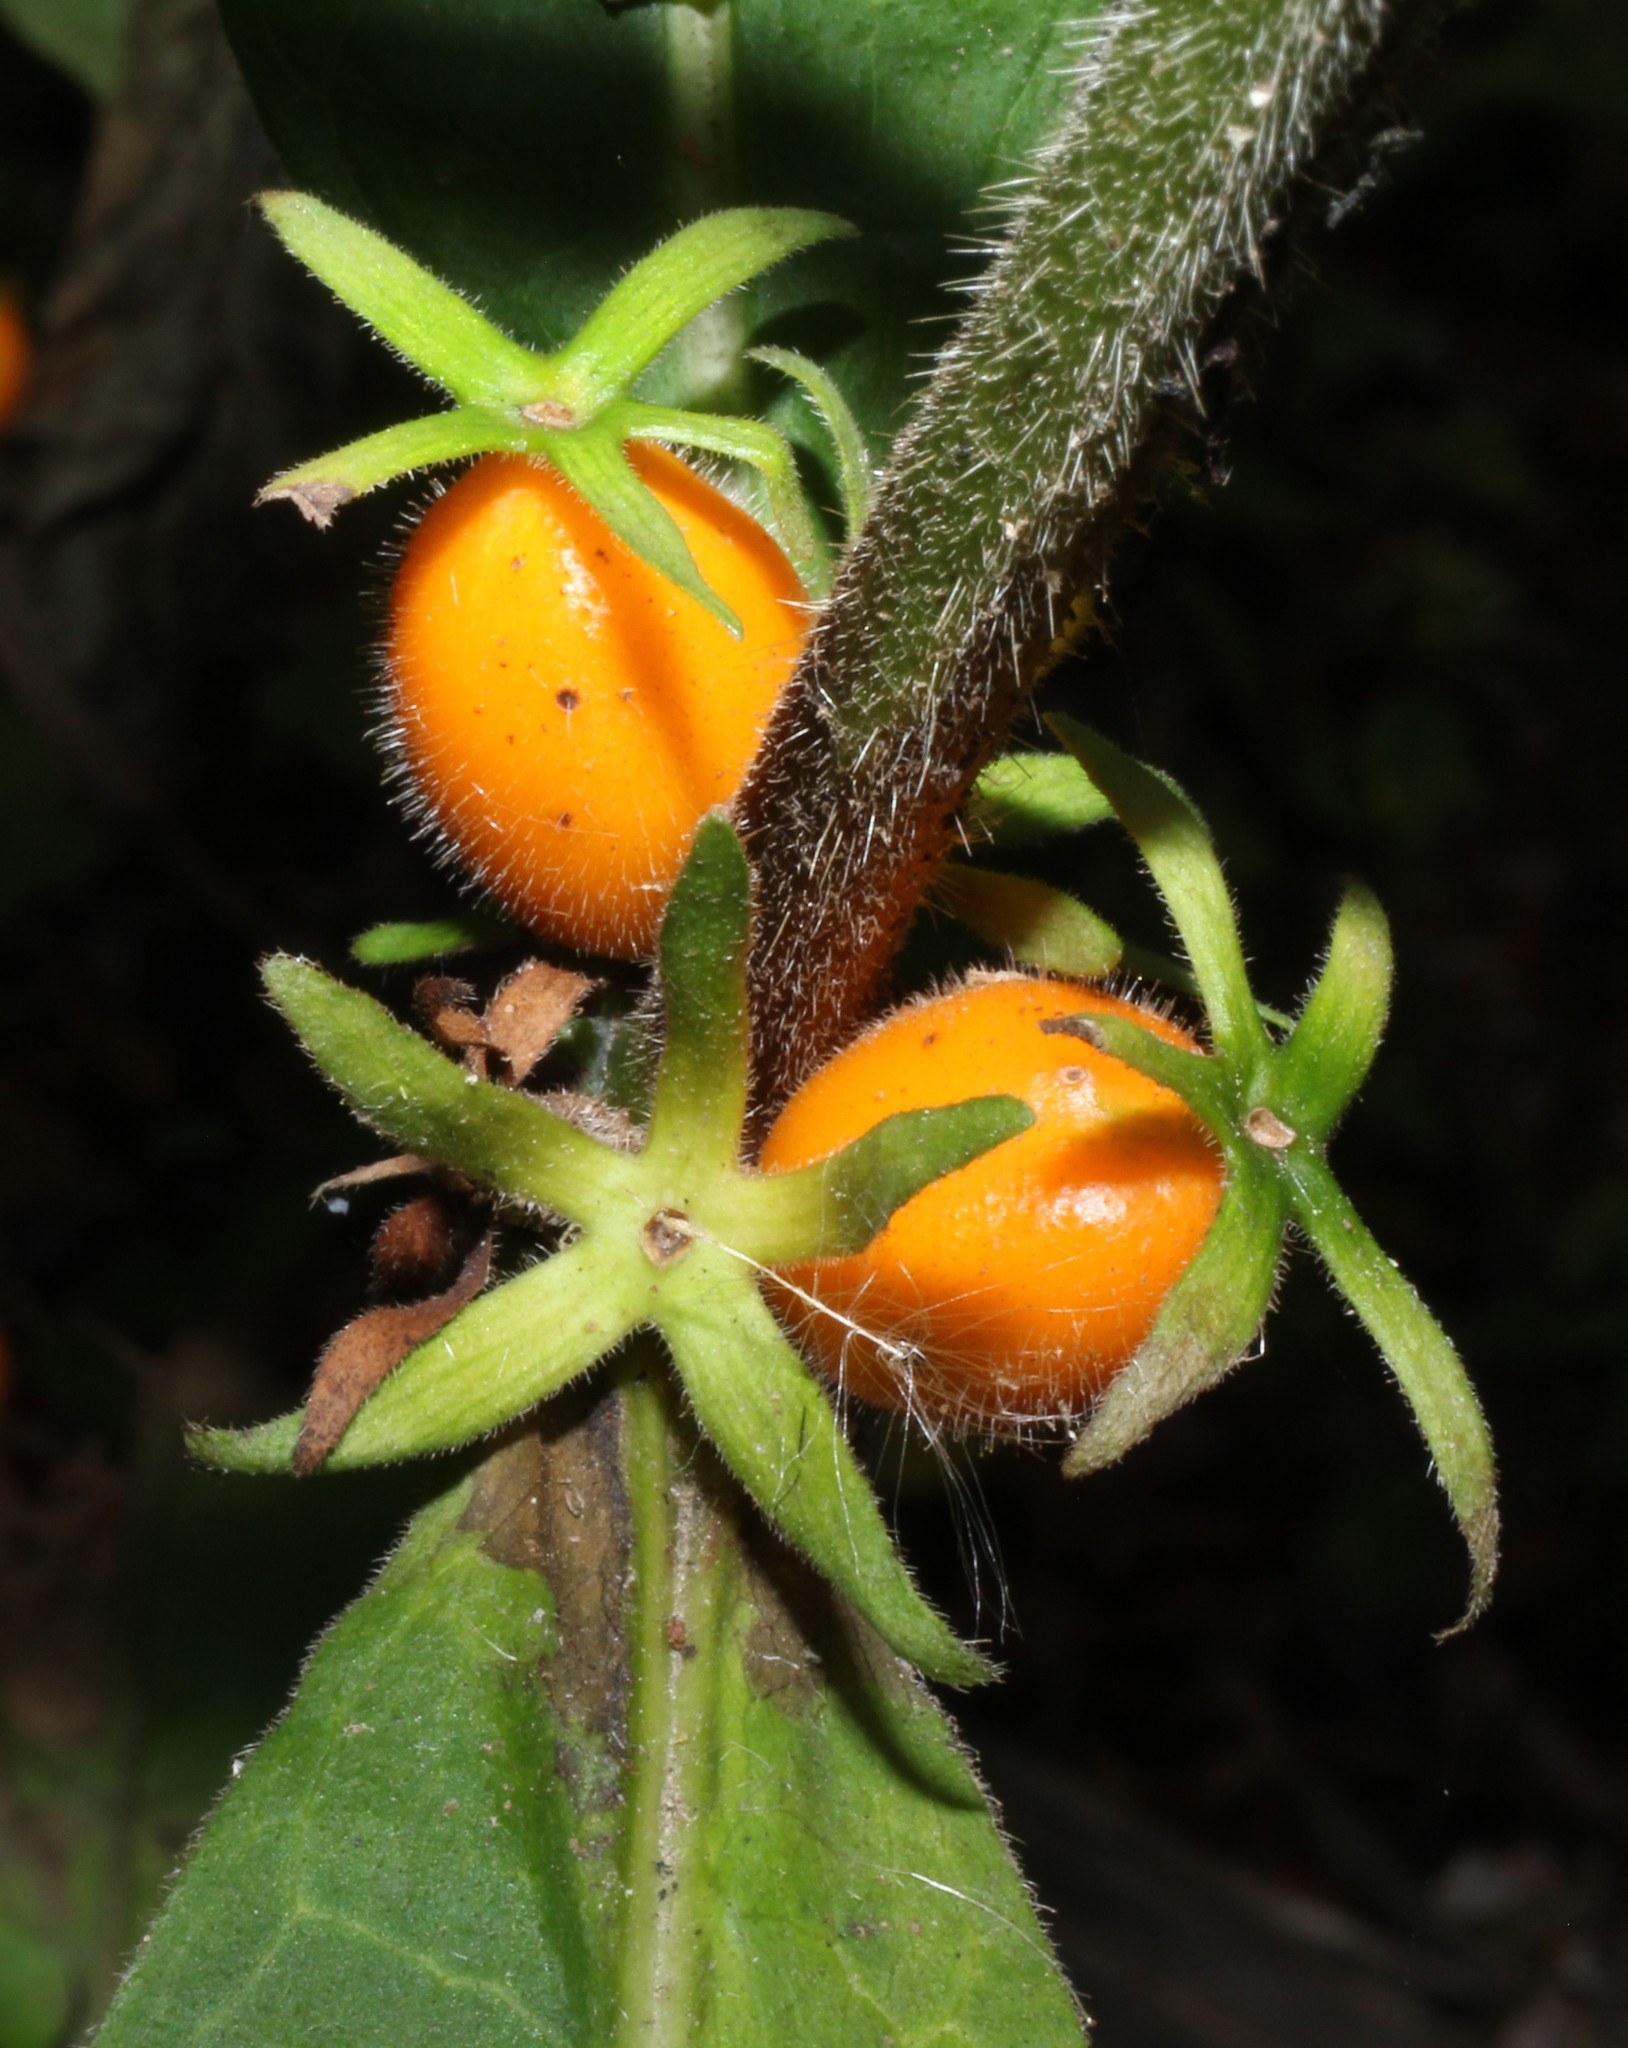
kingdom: Plantae
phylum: Tracheophyta
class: Magnoliopsida
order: Dipsacales
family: Caprifoliaceae
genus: Triosteum
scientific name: Triosteum aurantiacum
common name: Coffee tinker's-weed
